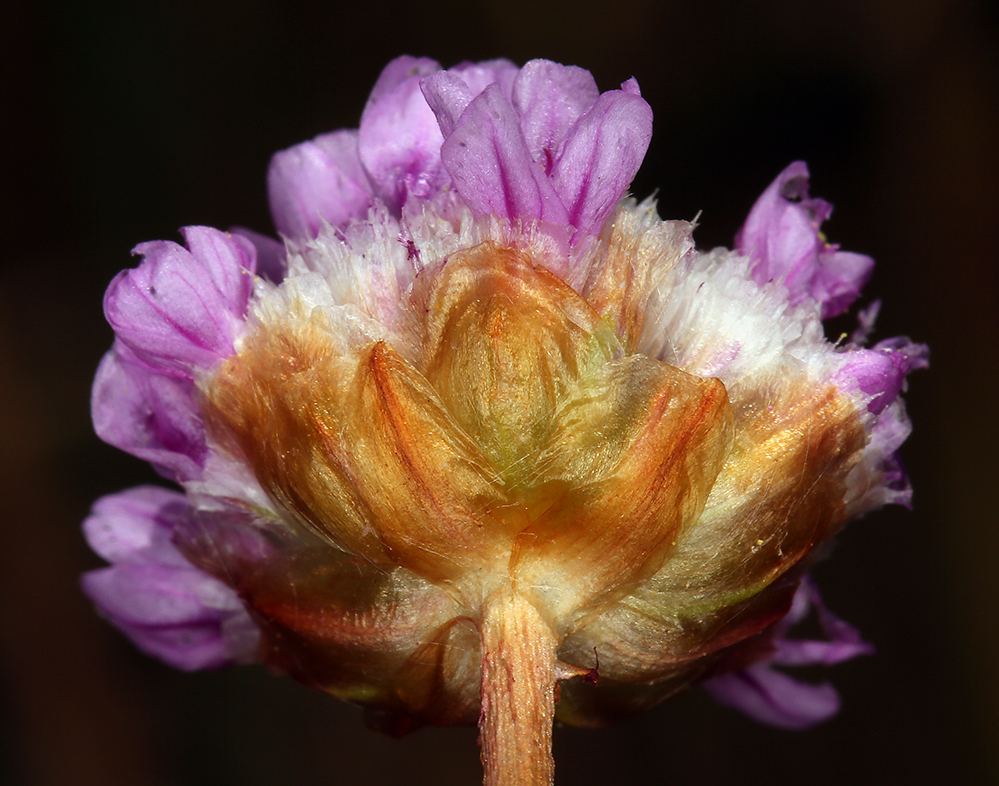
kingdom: Plantae
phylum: Tracheophyta
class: Magnoliopsida
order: Caryophyllales
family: Plumbaginaceae
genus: Armeria
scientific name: Armeria maritima
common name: Thrift
